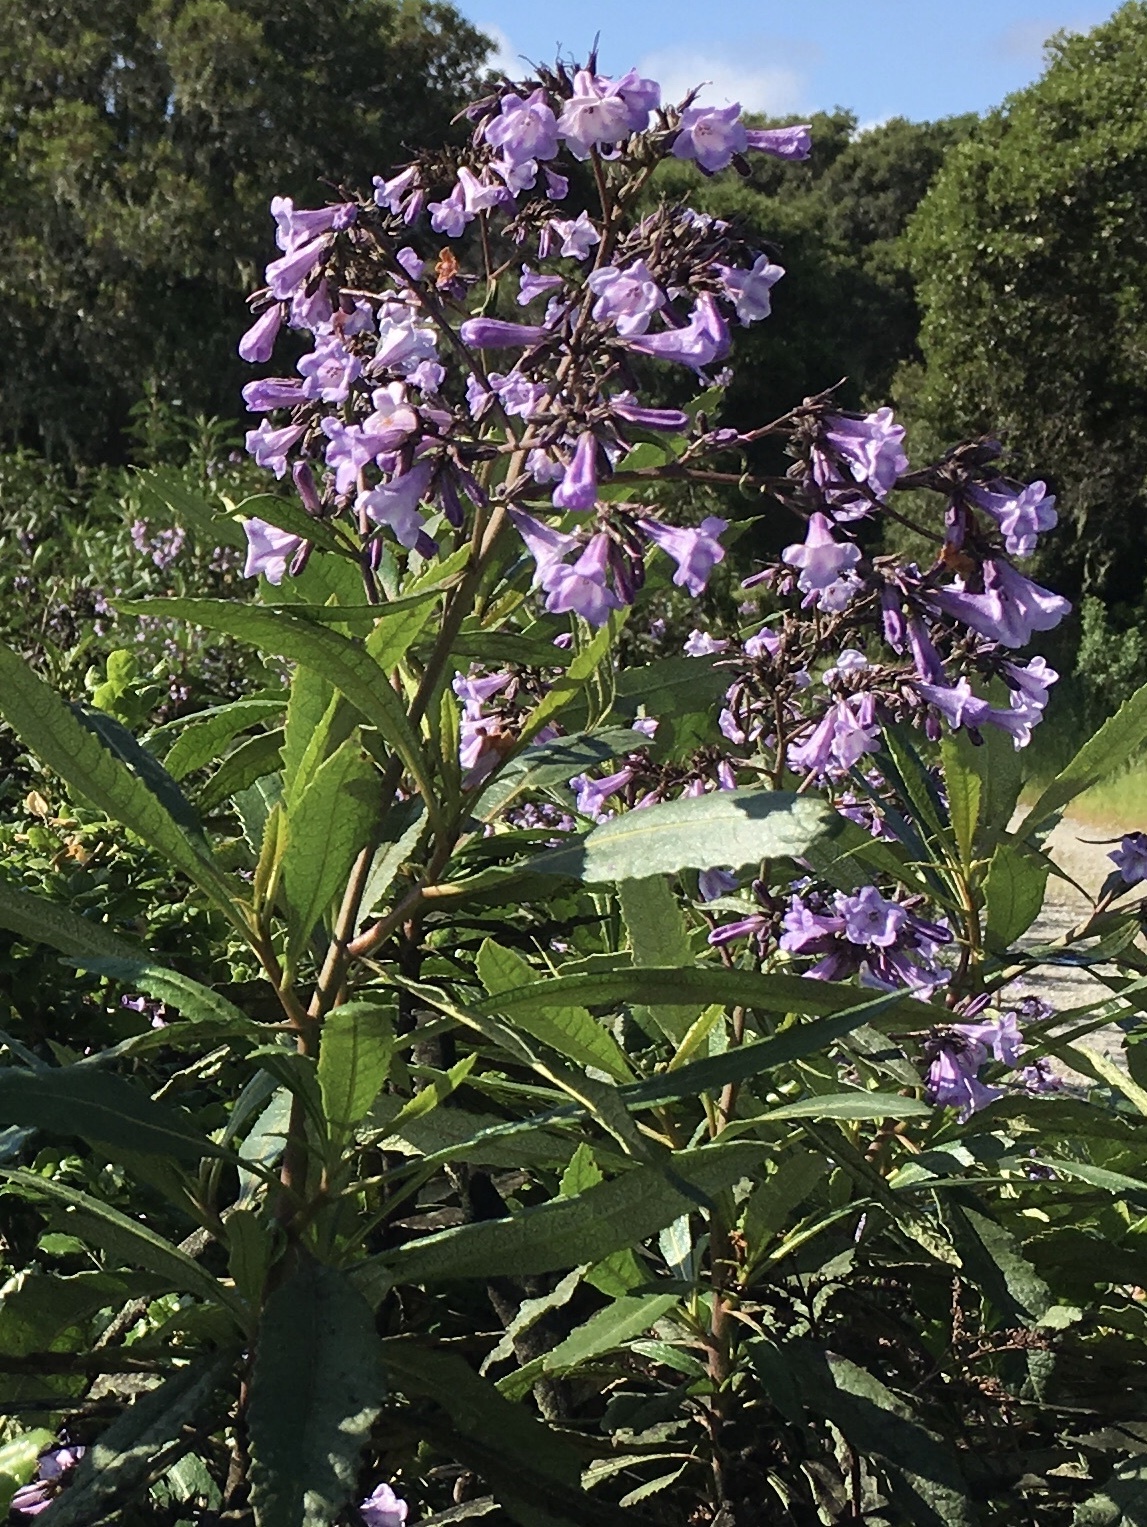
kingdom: Plantae
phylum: Tracheophyta
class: Magnoliopsida
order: Boraginales
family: Namaceae
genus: Eriodictyon
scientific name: Eriodictyon californicum
